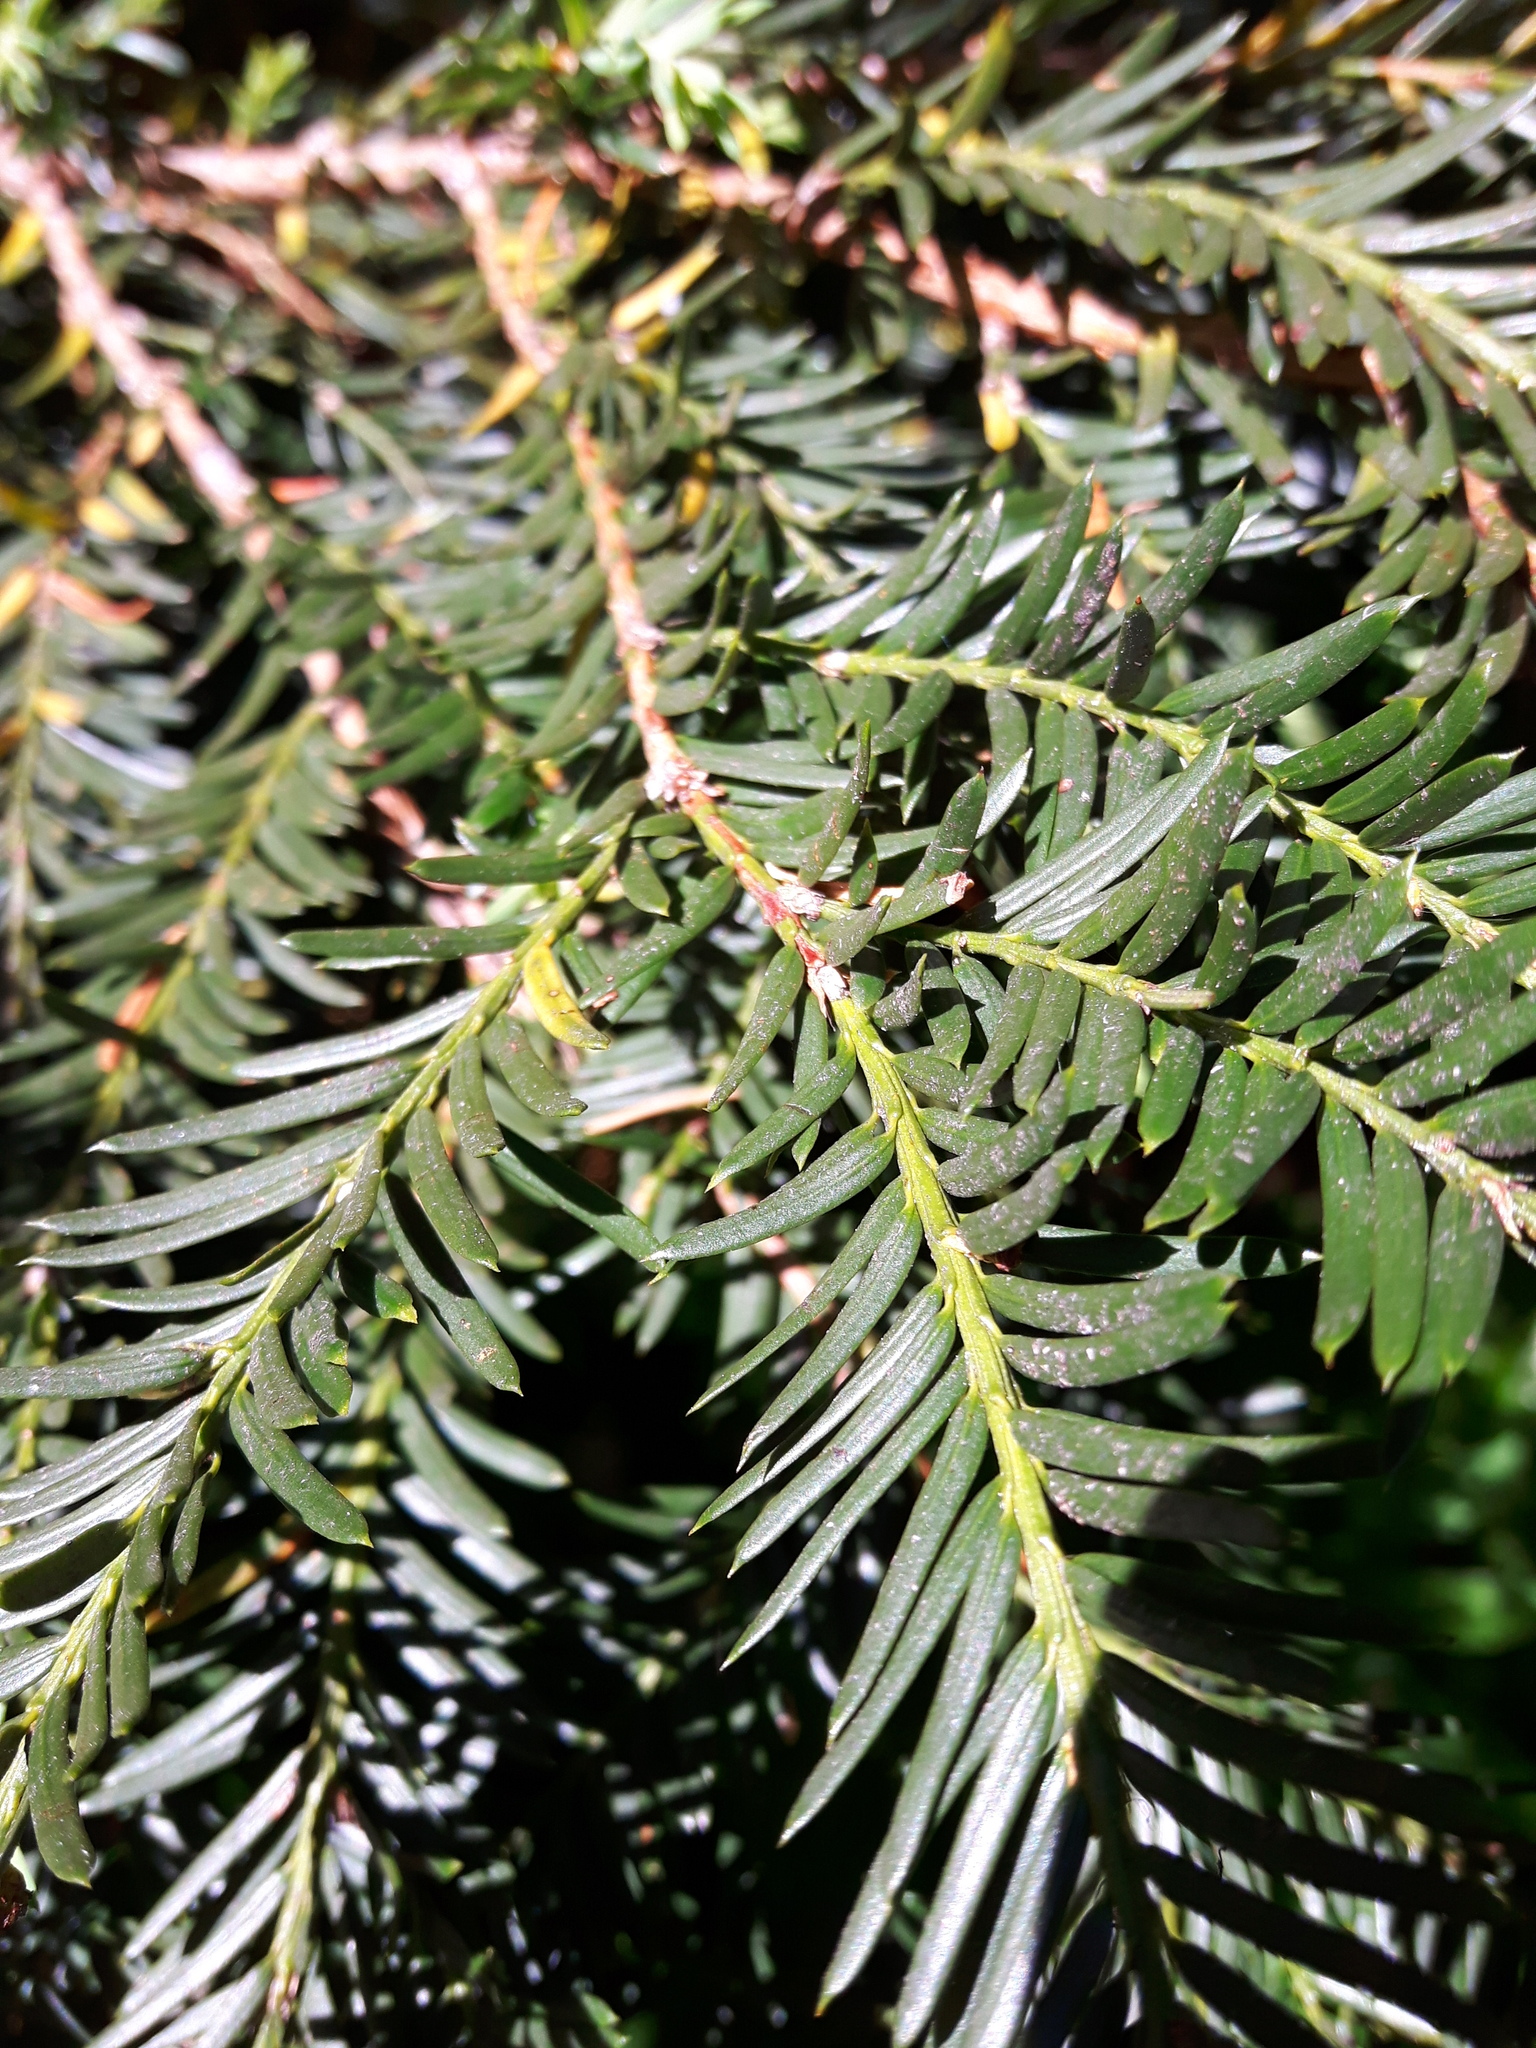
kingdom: Plantae
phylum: Tracheophyta
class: Pinopsida
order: Pinales
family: Taxaceae
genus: Taxus
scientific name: Taxus brevifolia
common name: Pacific yew
